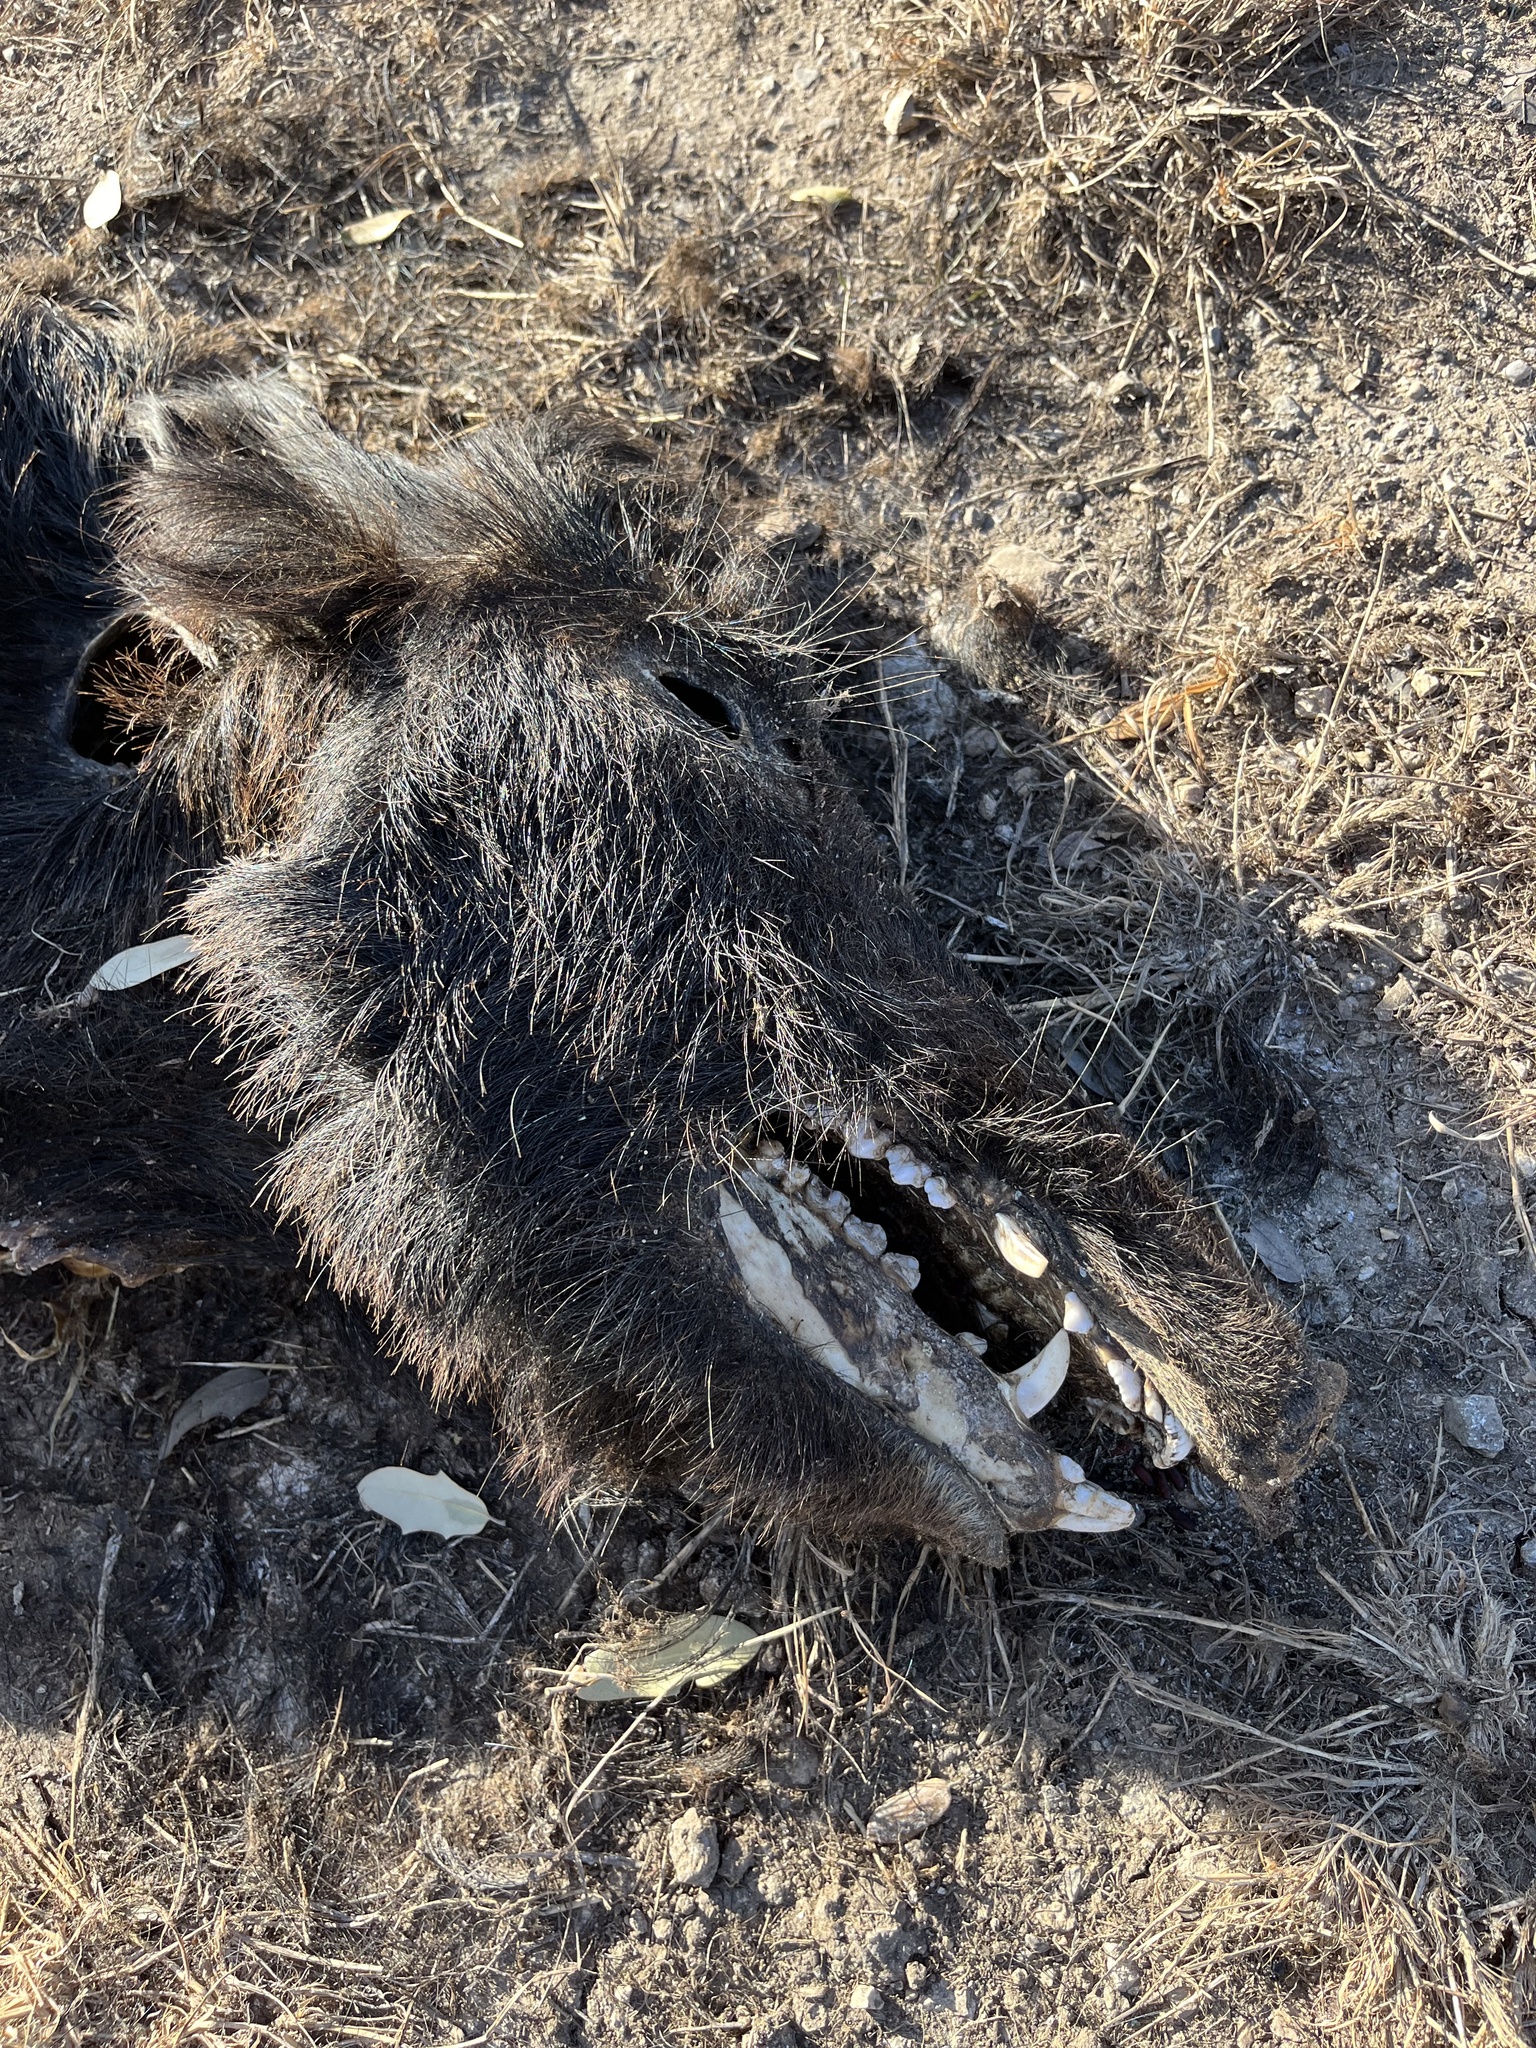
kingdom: Animalia
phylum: Chordata
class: Mammalia
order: Artiodactyla
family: Suidae
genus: Sus
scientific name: Sus scrofa
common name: Wild boar
